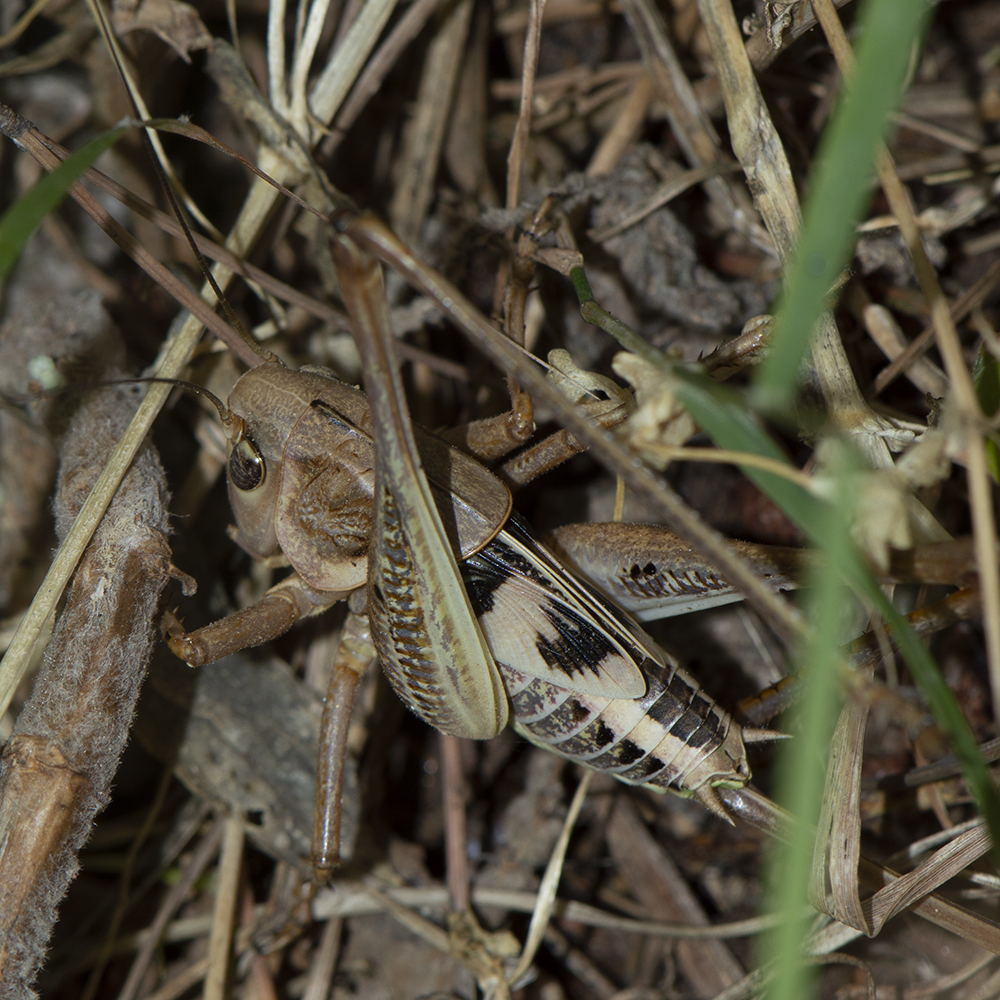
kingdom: Animalia
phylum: Arthropoda
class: Insecta
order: Orthoptera
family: Tettigoniidae
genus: Decticus
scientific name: Decticus albifrons
